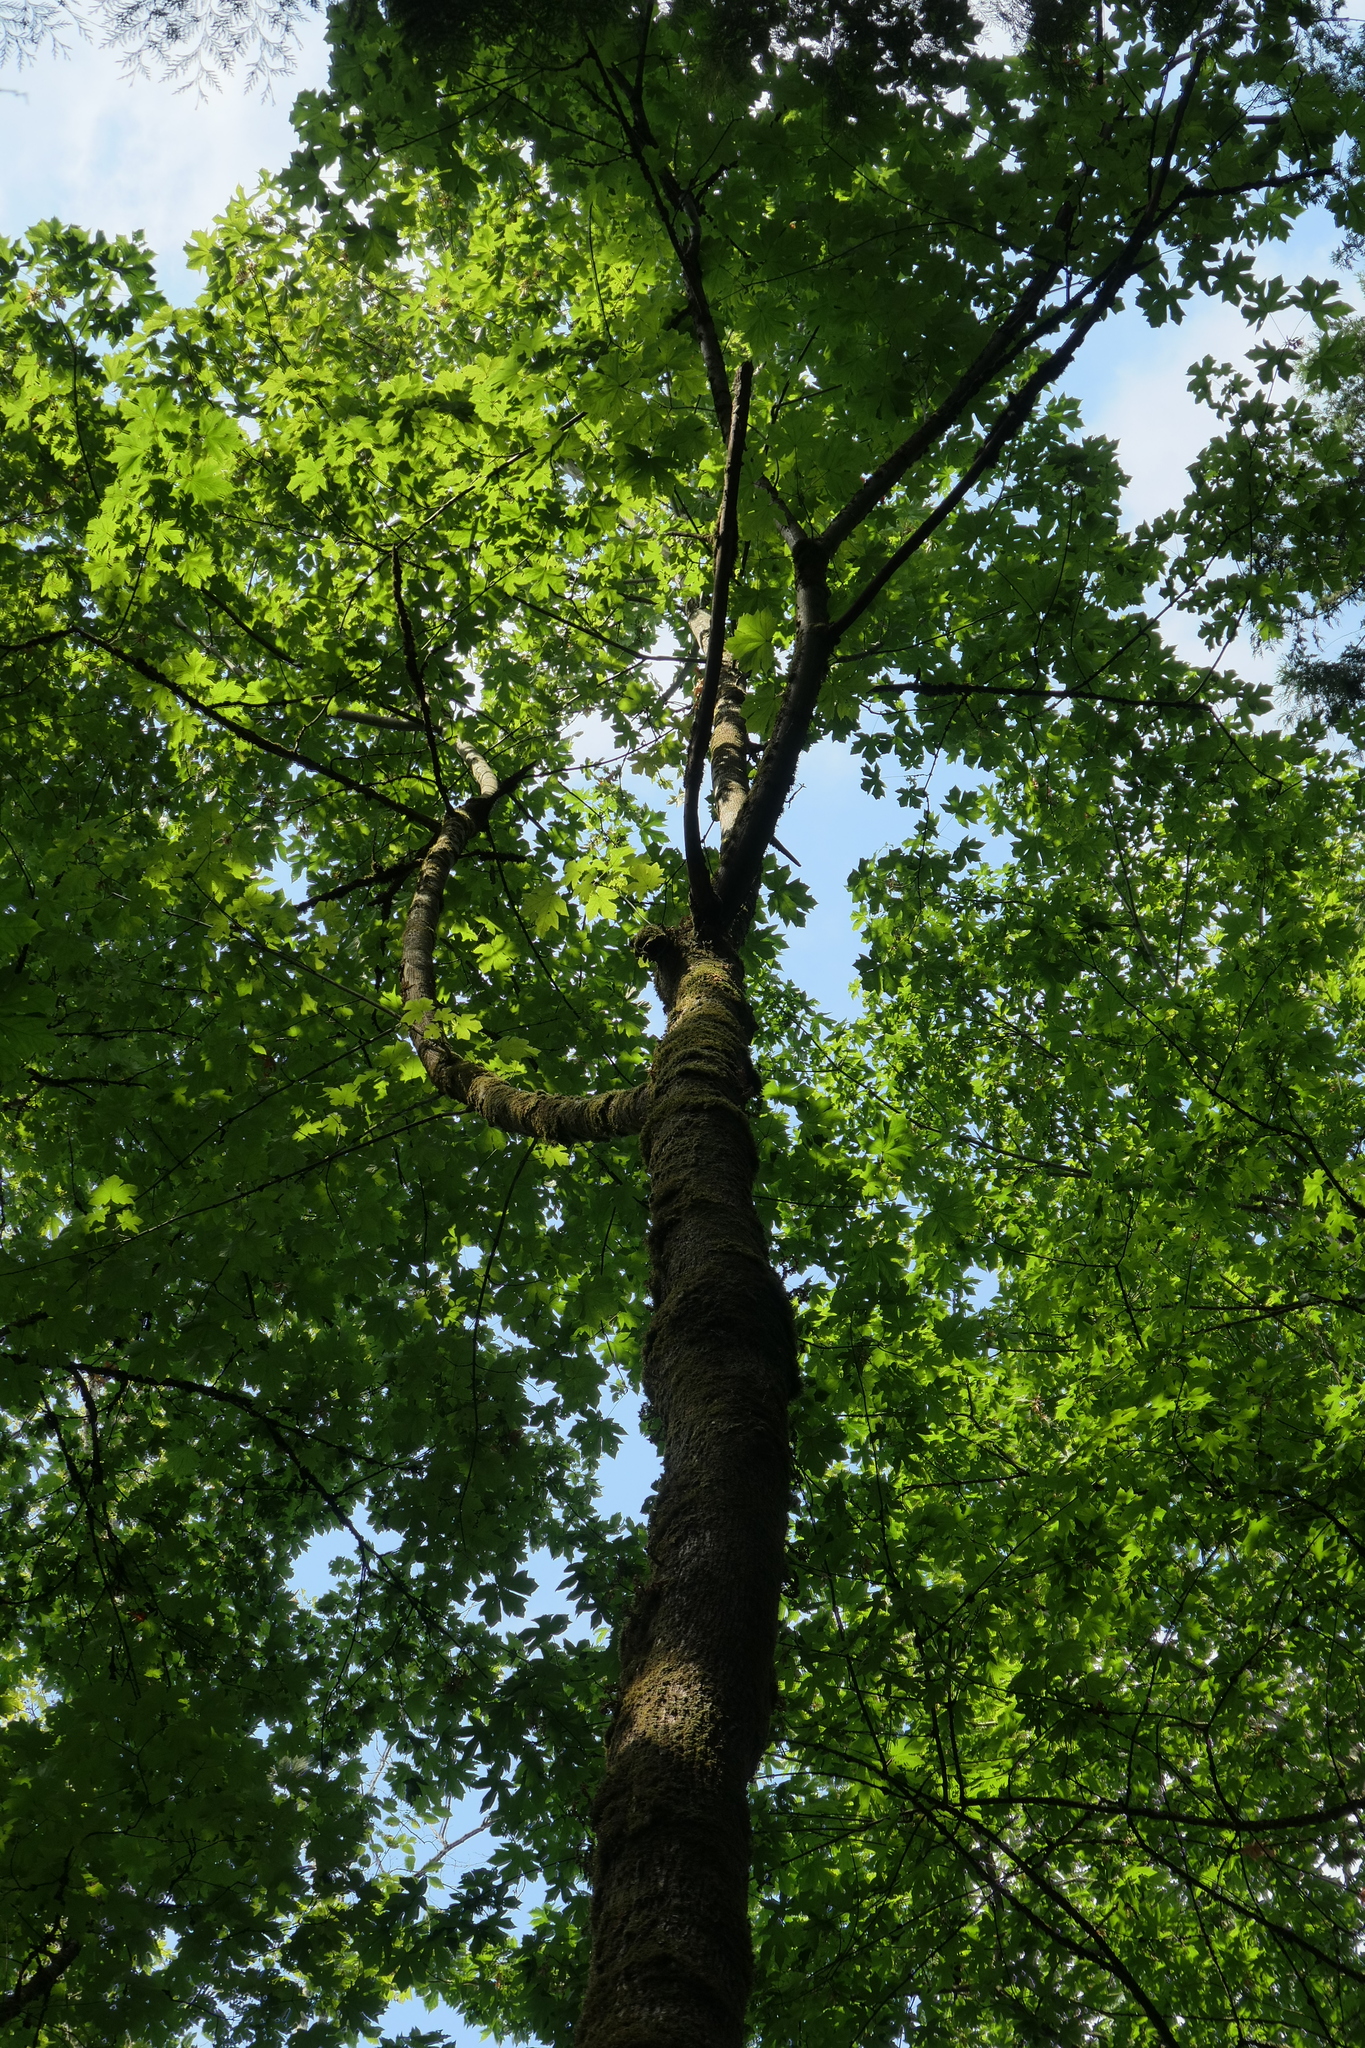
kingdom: Plantae
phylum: Tracheophyta
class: Magnoliopsida
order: Sapindales
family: Sapindaceae
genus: Acer
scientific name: Acer macrophyllum
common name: Oregon maple
